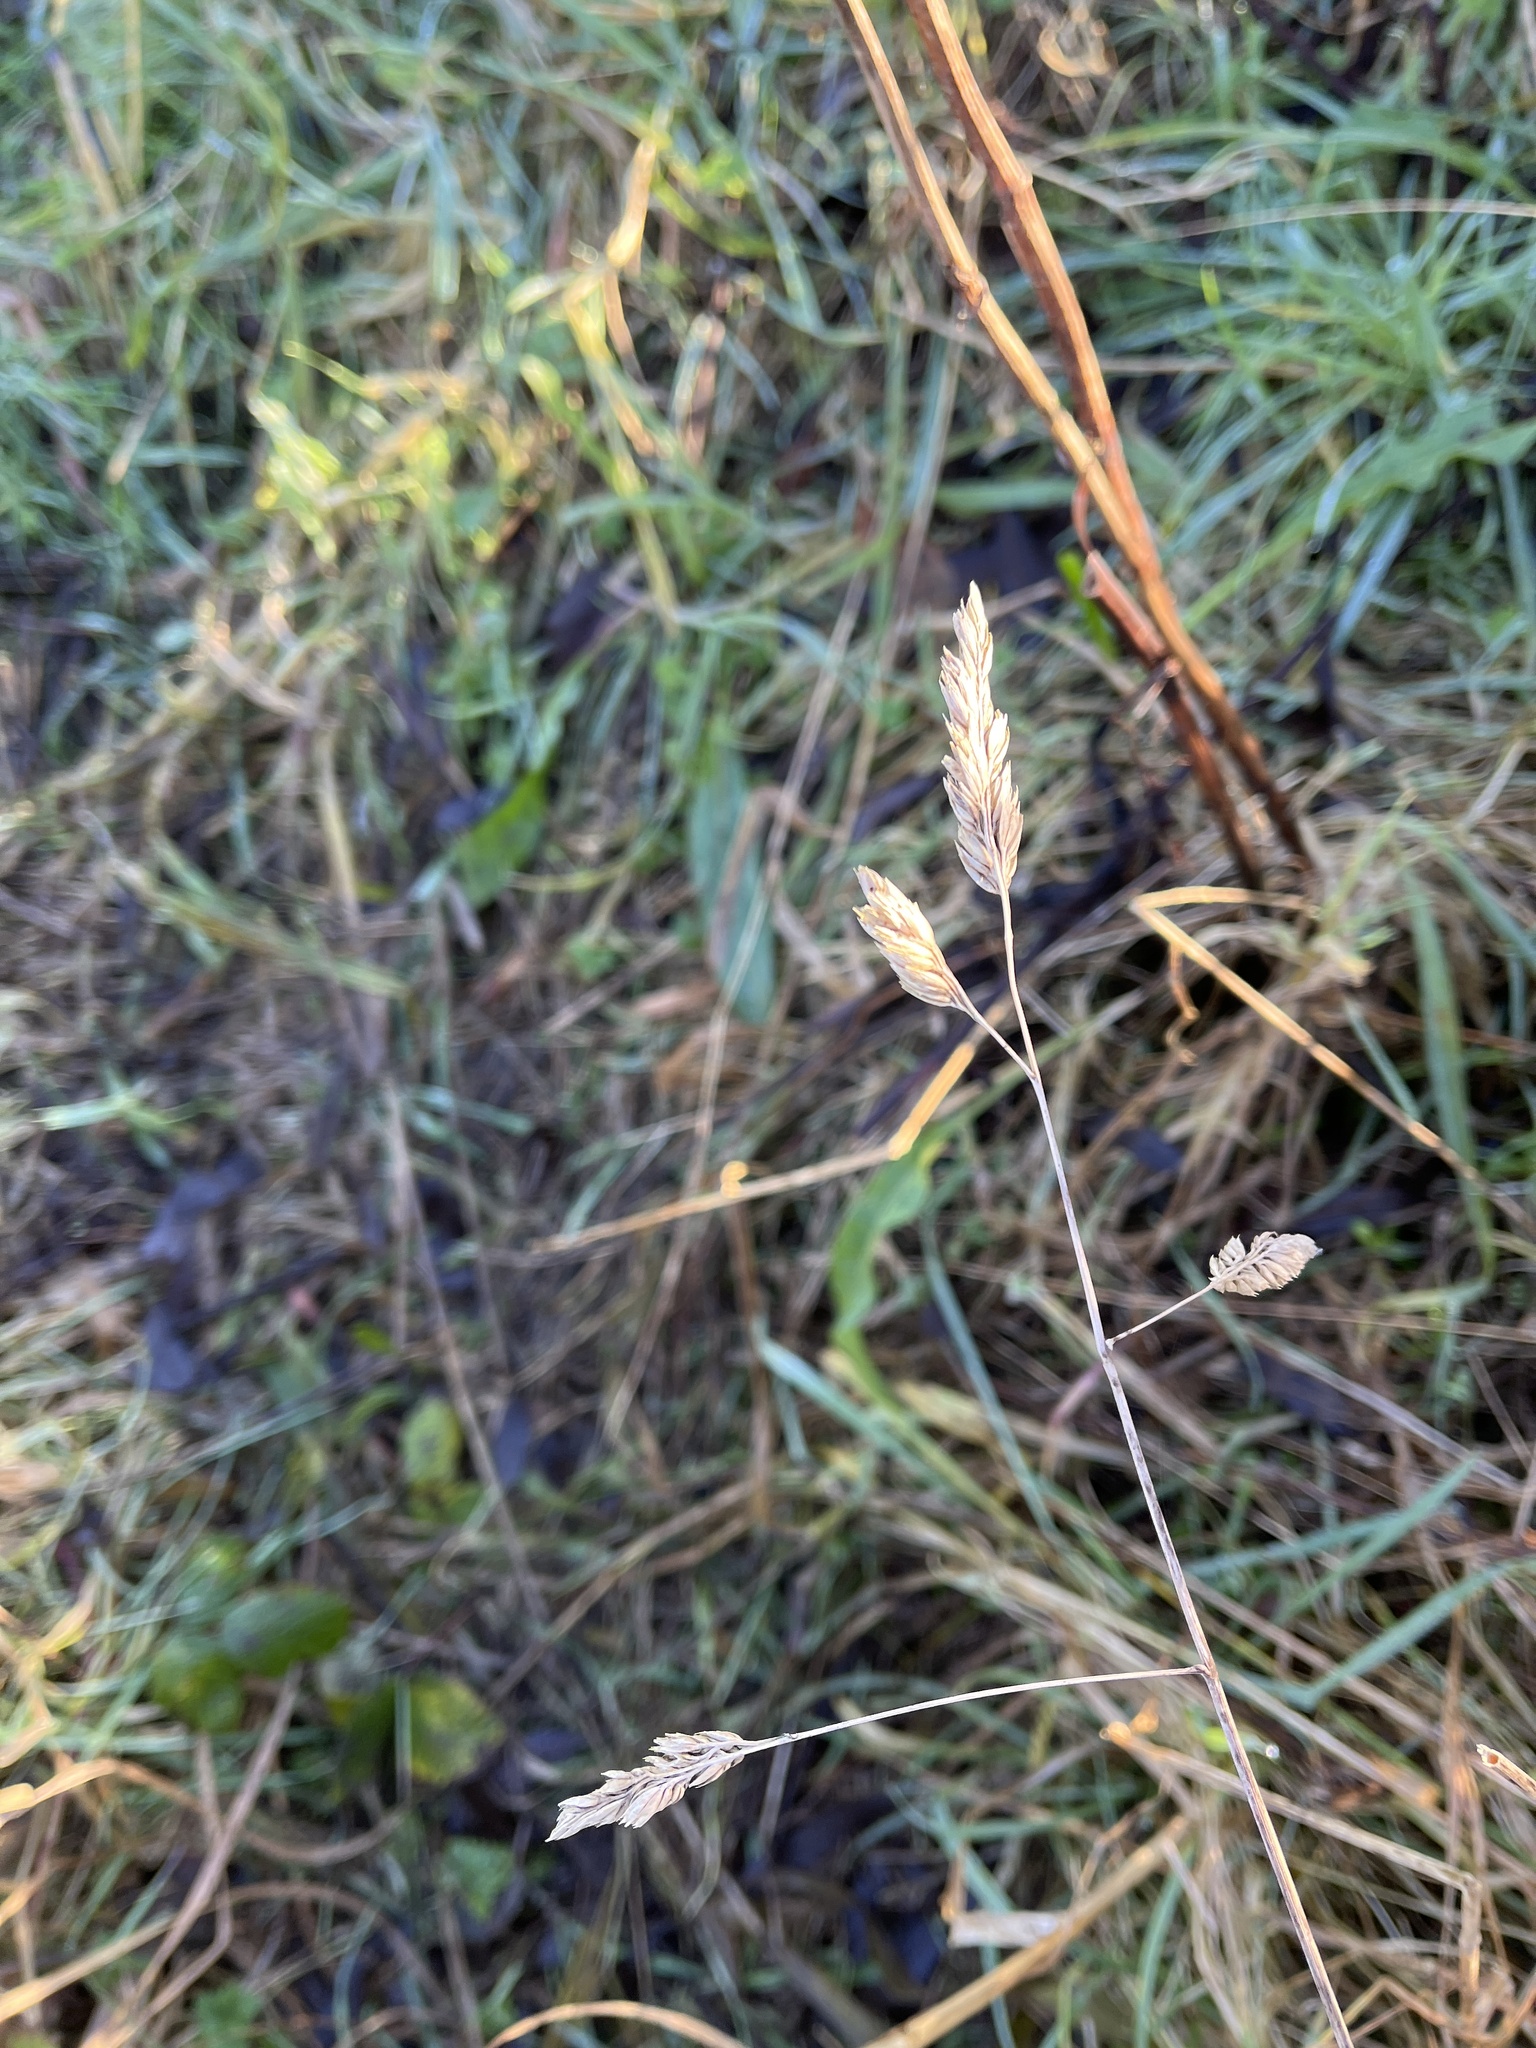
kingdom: Plantae
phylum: Tracheophyta
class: Liliopsida
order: Poales
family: Poaceae
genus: Dactylis
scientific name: Dactylis glomerata
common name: Orchardgrass
